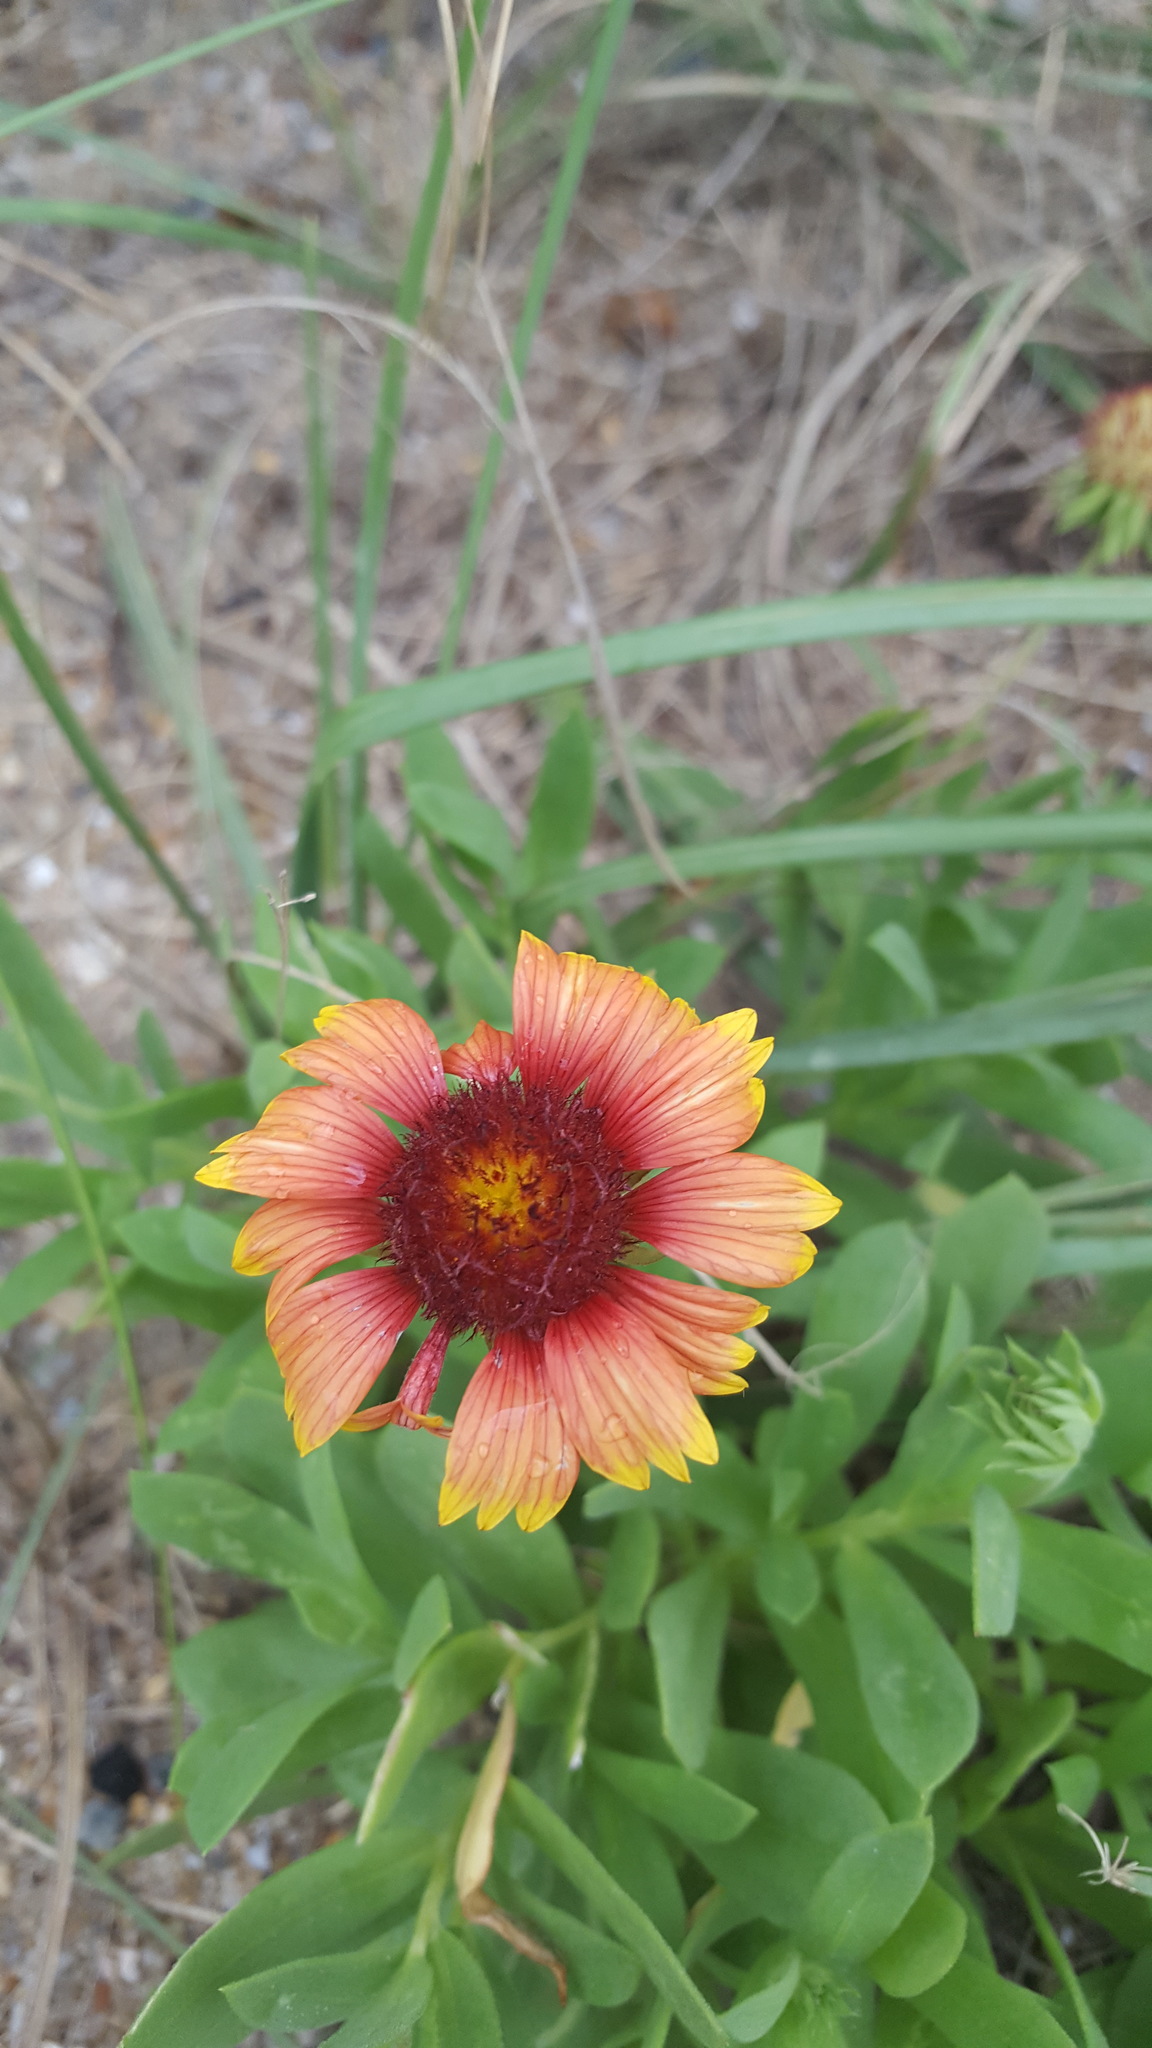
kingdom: Plantae
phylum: Tracheophyta
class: Magnoliopsida
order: Asterales
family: Asteraceae
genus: Gaillardia
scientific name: Gaillardia pulchella
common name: Firewheel
